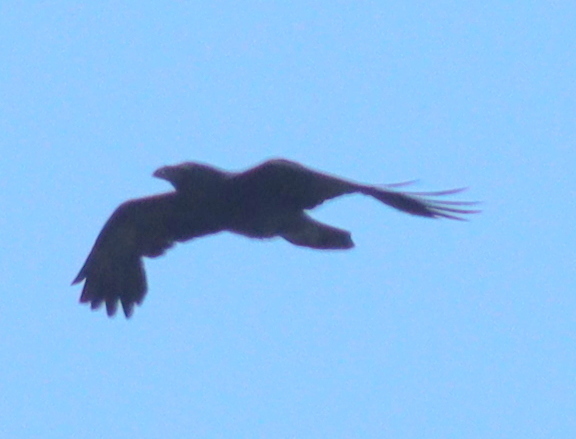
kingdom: Animalia
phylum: Chordata
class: Aves
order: Passeriformes
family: Corvidae
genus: Corvus
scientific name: Corvus corax
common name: Common raven
